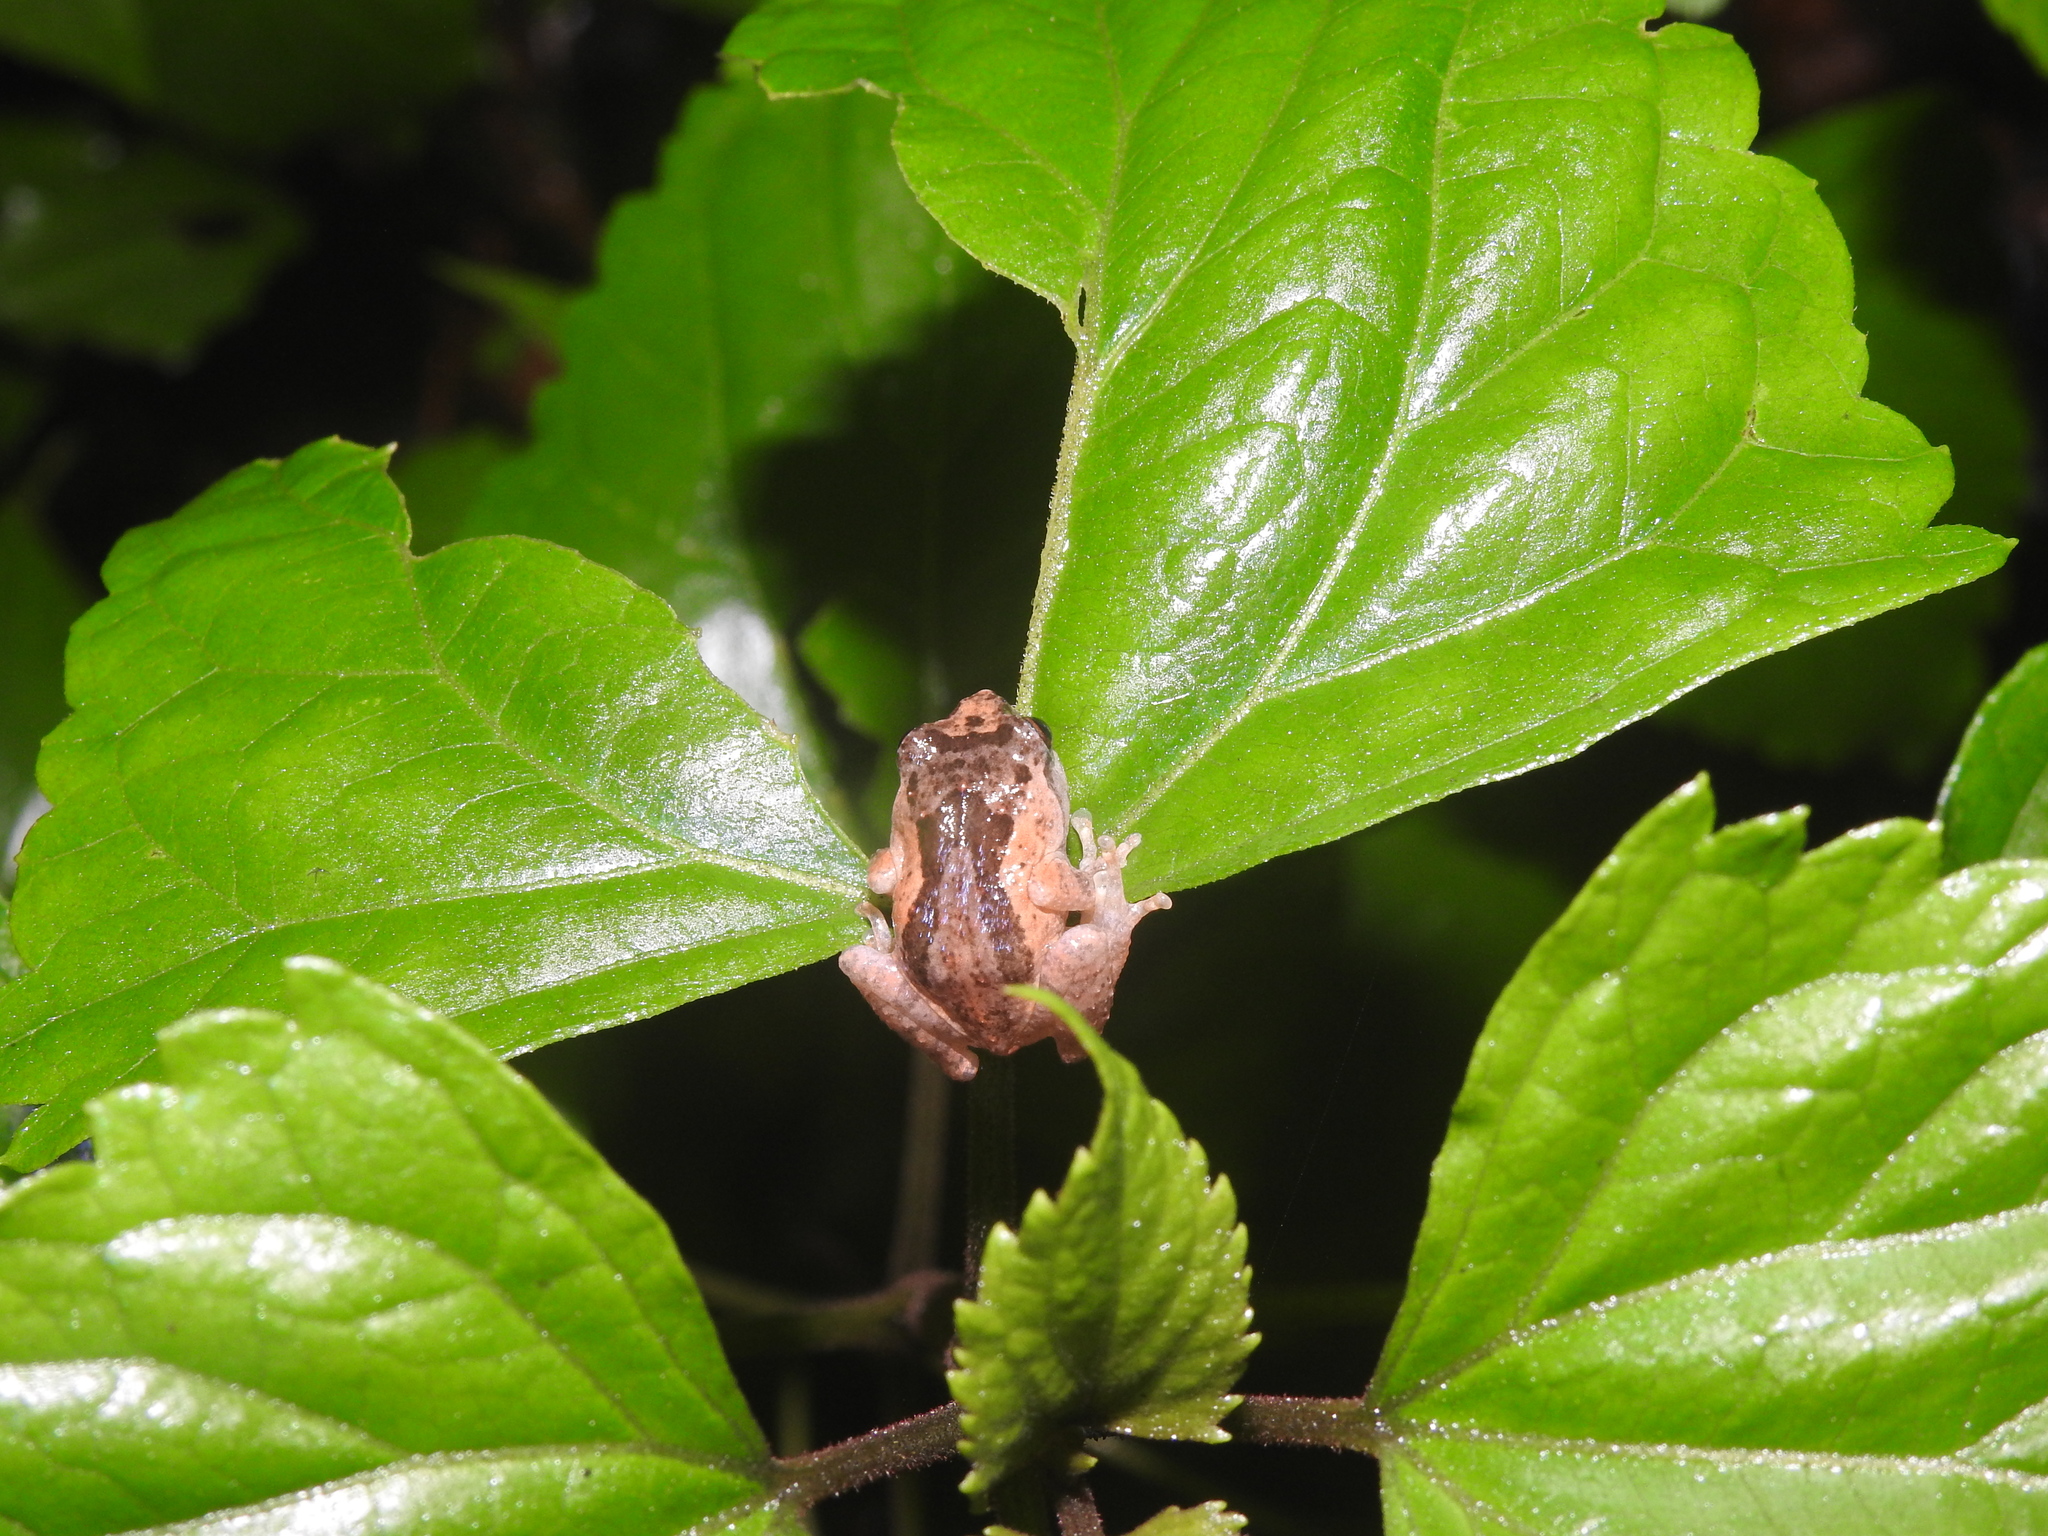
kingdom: Animalia
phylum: Chordata
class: Amphibia
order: Anura
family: Rhacophoridae
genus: Raorchestes
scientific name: Raorchestes dubois
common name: Koadaikanal bush frog
